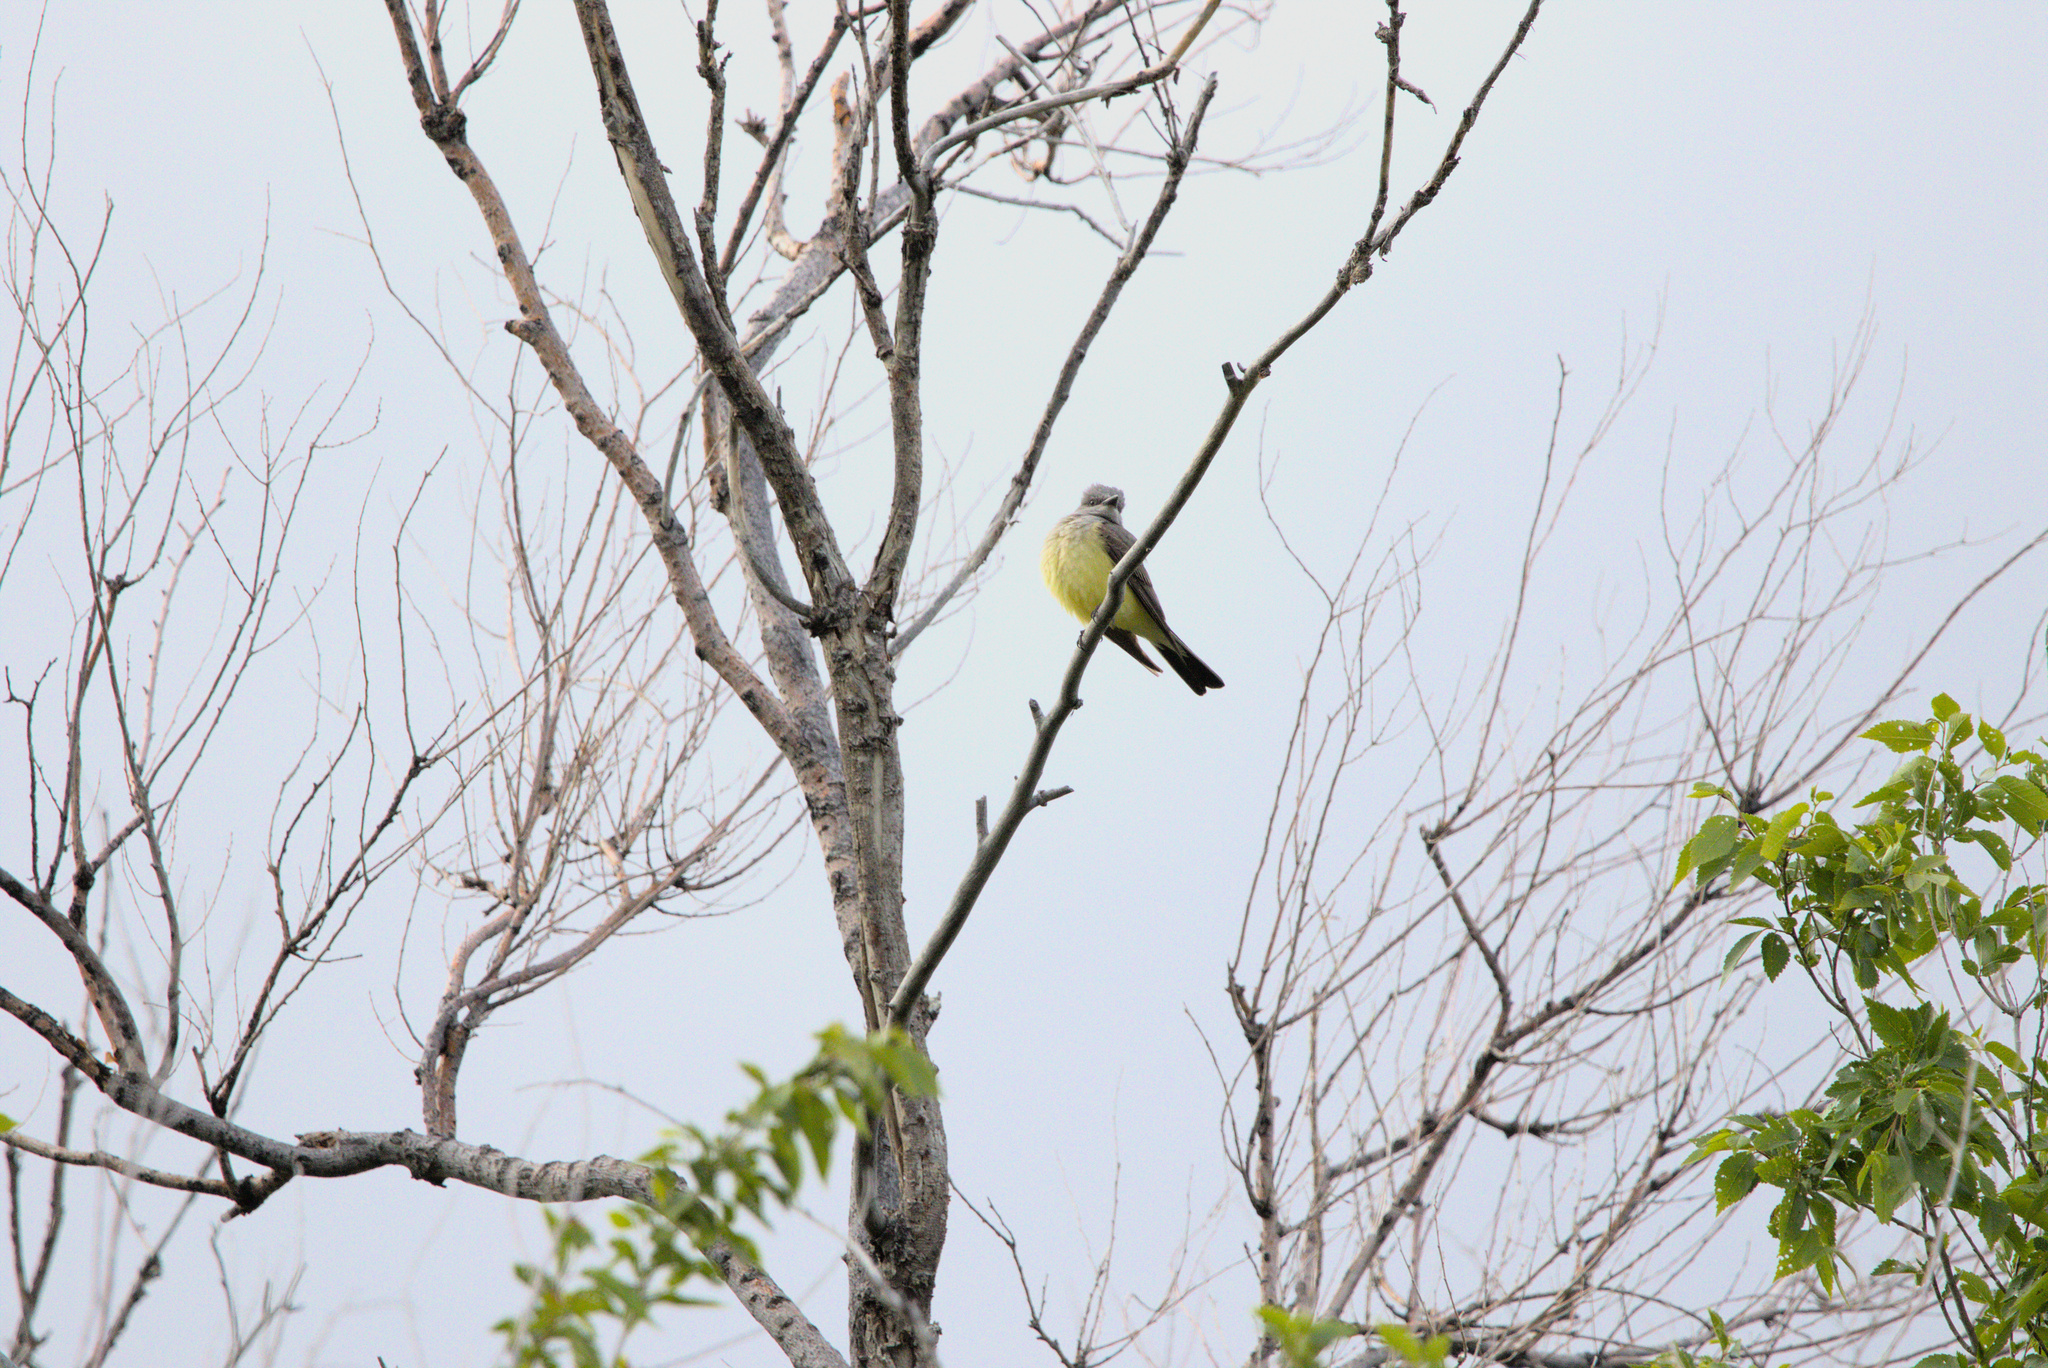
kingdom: Animalia
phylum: Chordata
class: Aves
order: Passeriformes
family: Tyrannidae
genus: Tyrannus
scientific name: Tyrannus verticalis
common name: Western kingbird
